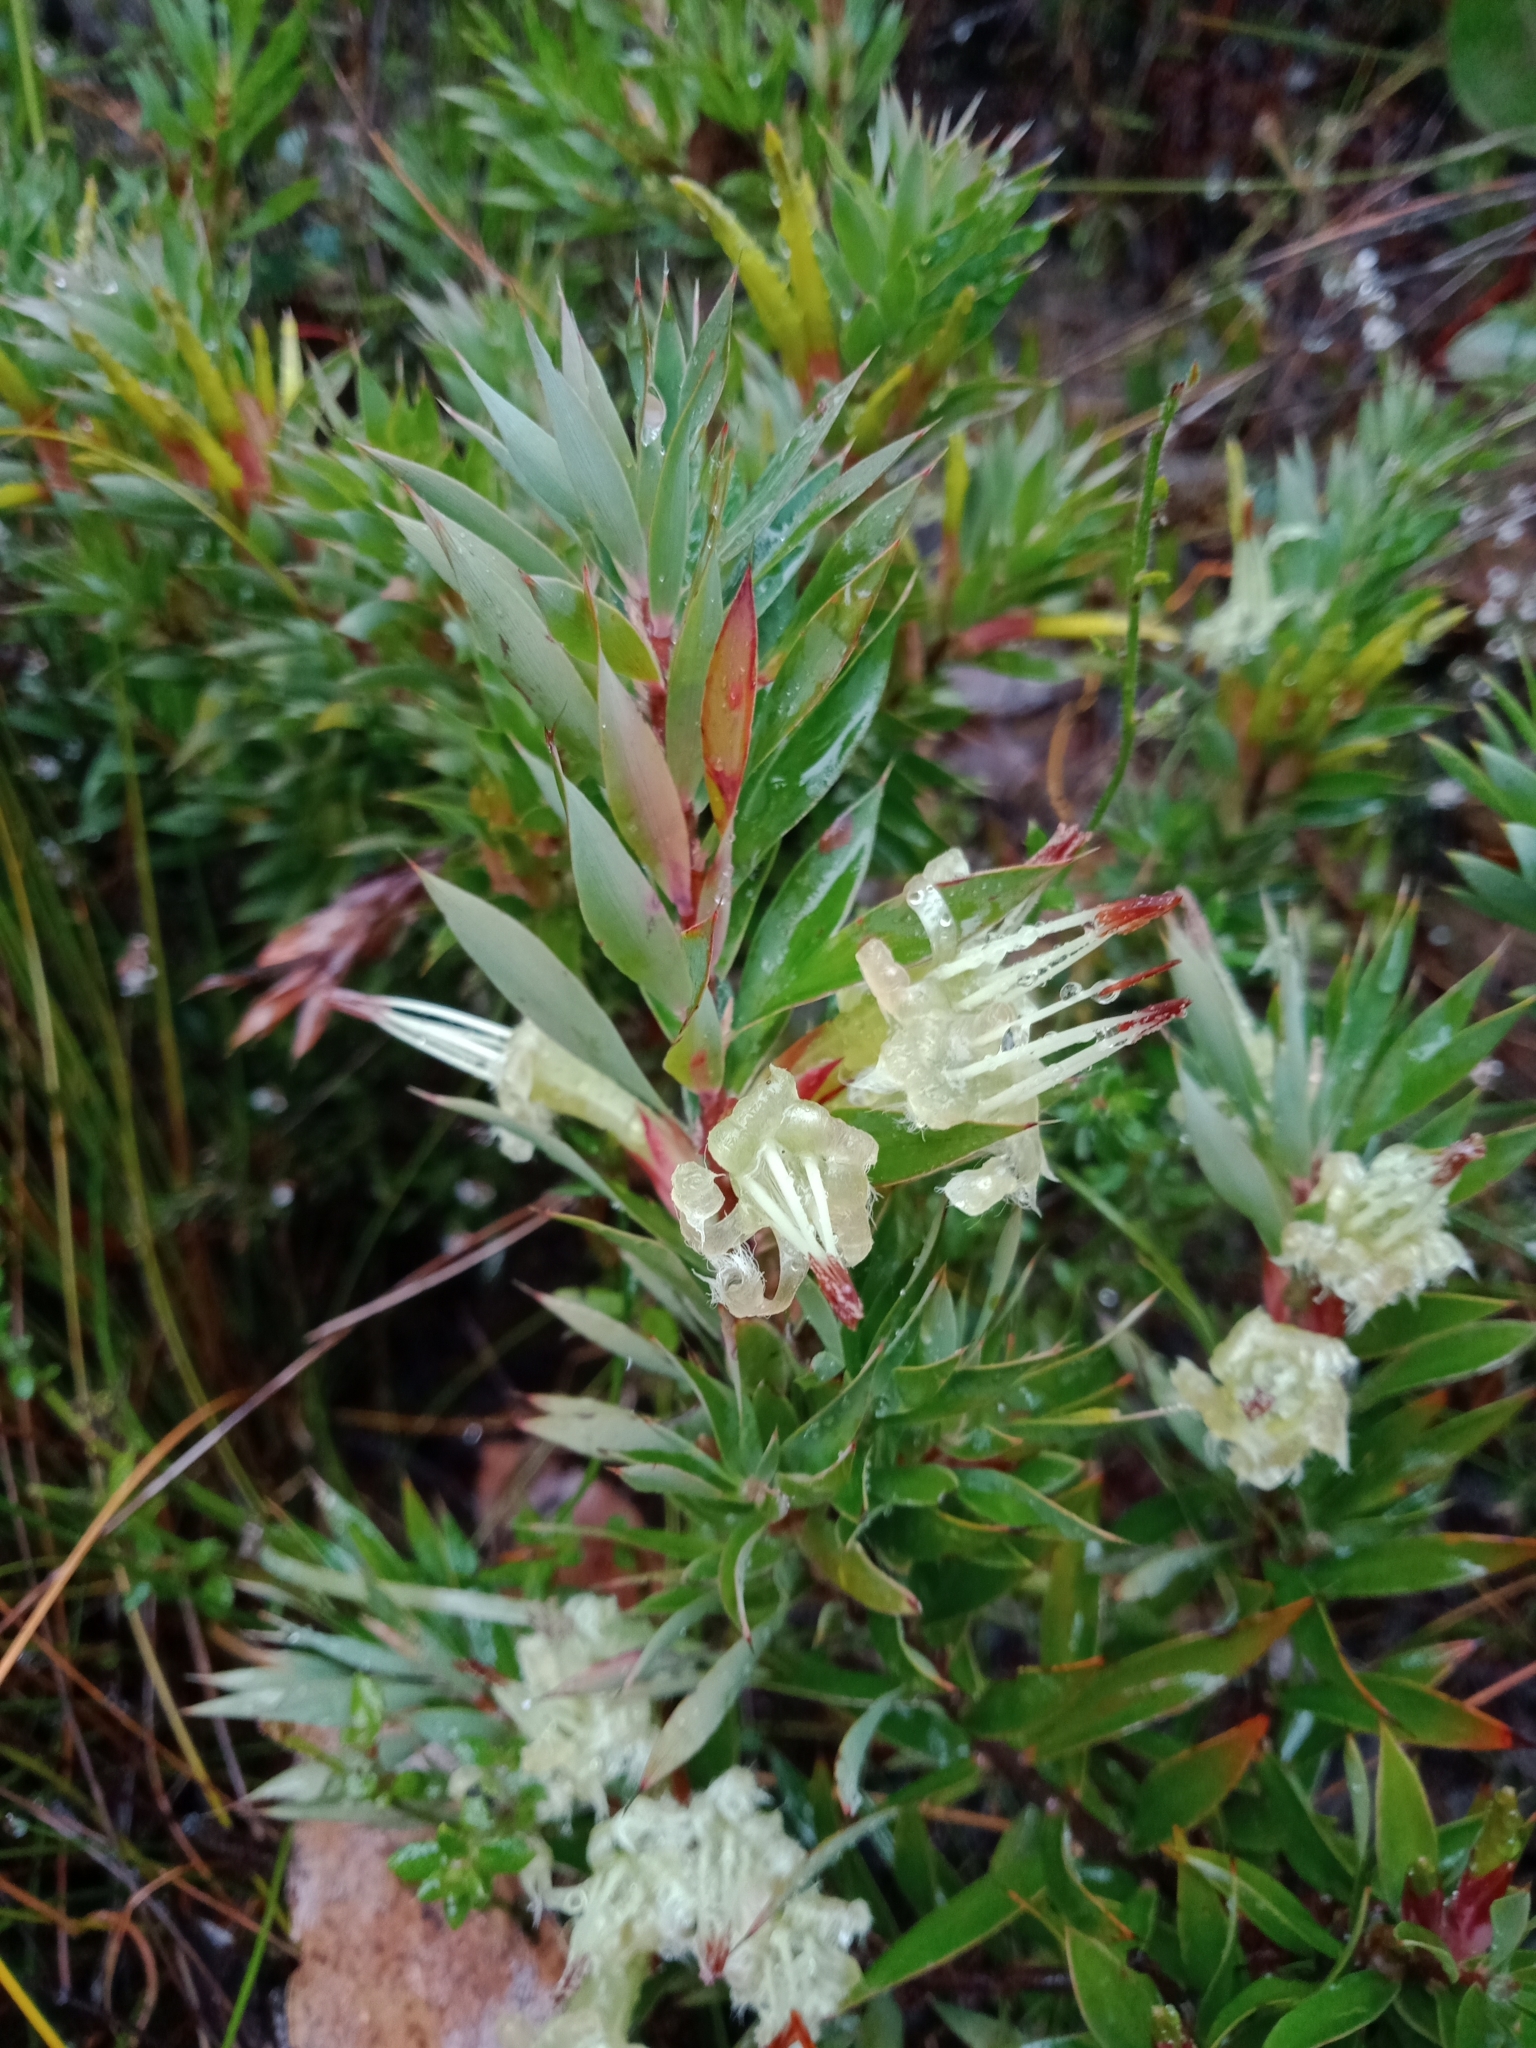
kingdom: Plantae
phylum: Tracheophyta
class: Magnoliopsida
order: Ericales
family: Ericaceae
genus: Styphelia
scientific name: Styphelia adscendens
